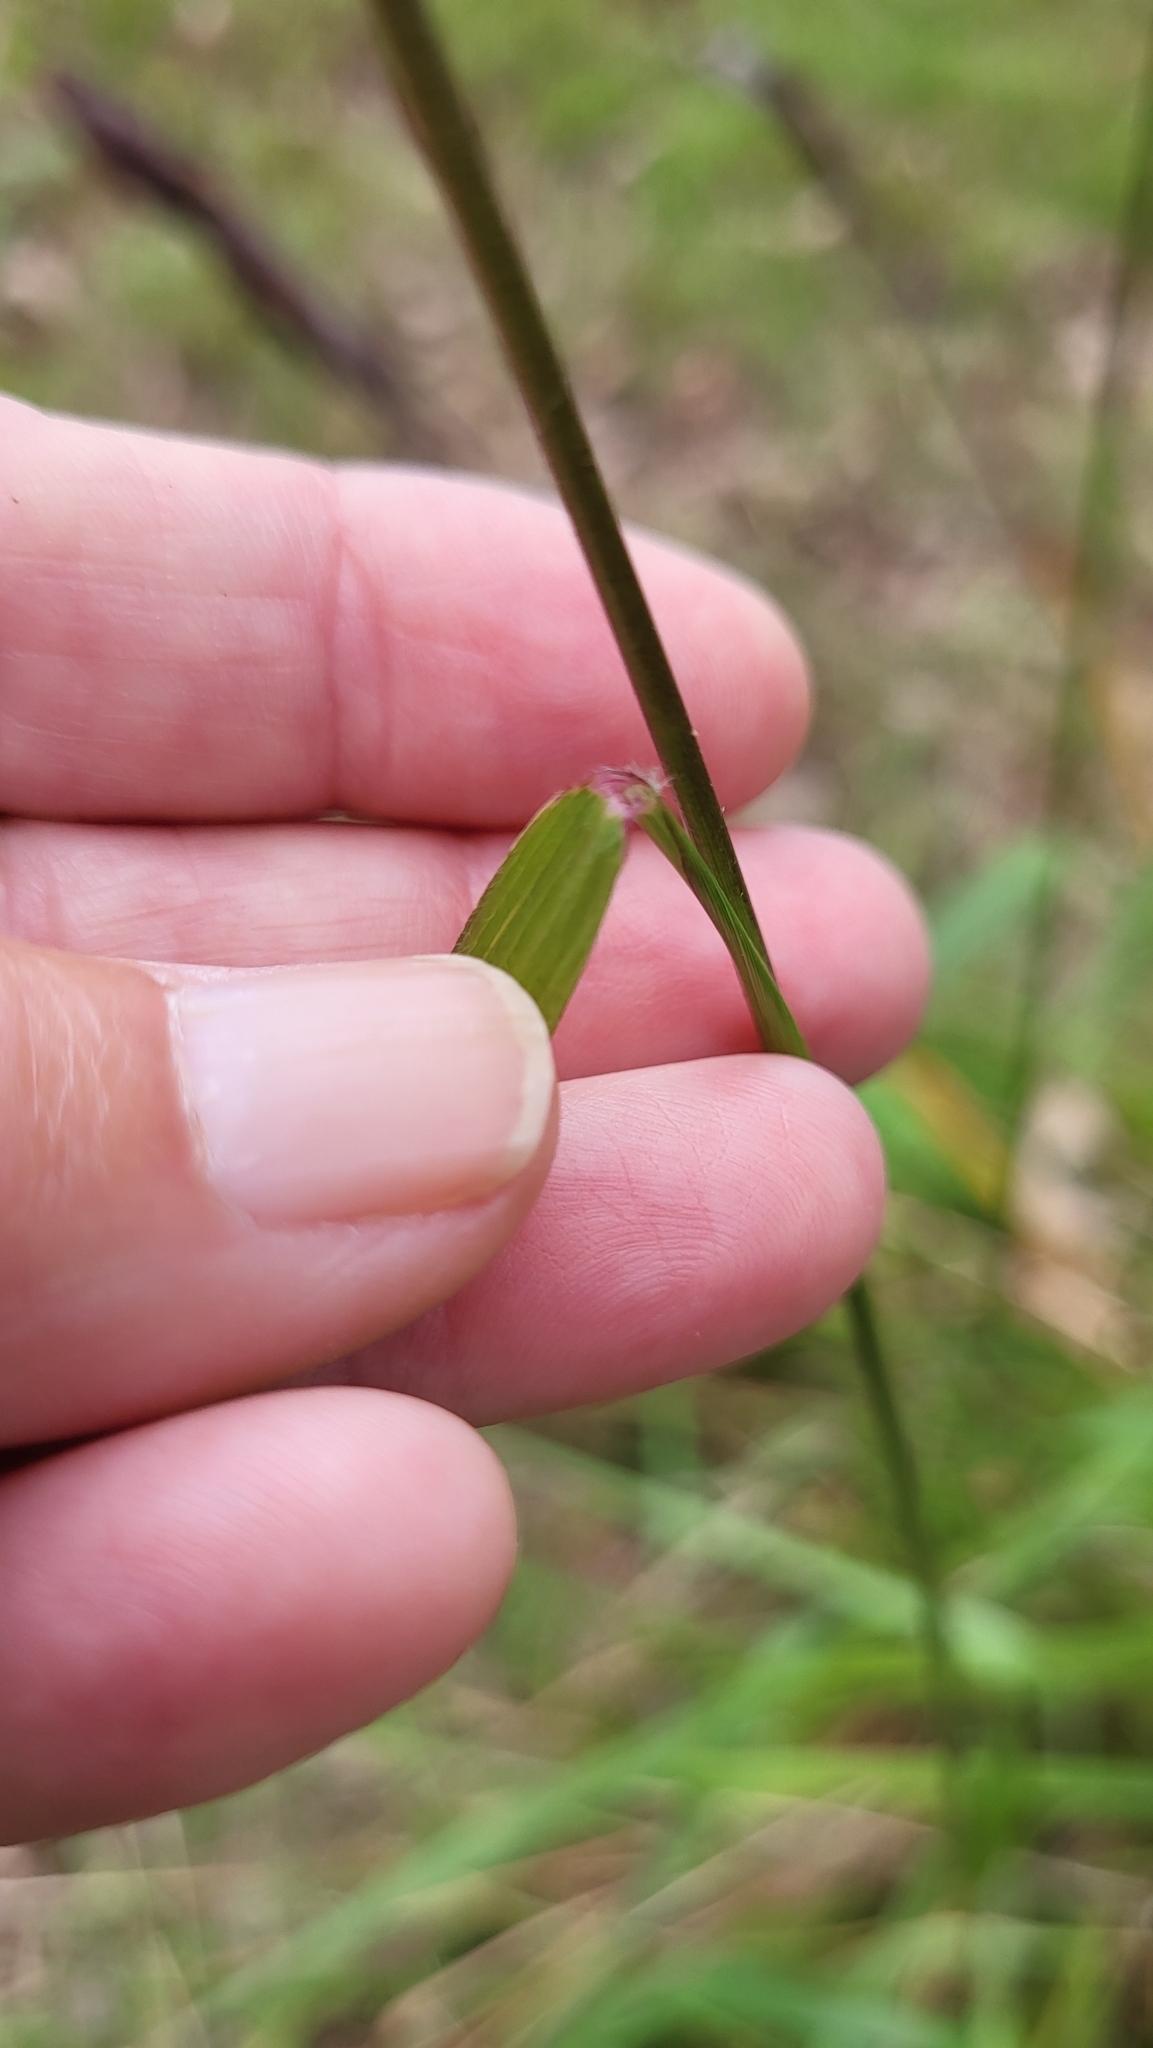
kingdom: Plantae
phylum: Tracheophyta
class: Liliopsida
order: Poales
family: Poaceae
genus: Tridens
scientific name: Tridens flavus
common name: Purpletop
